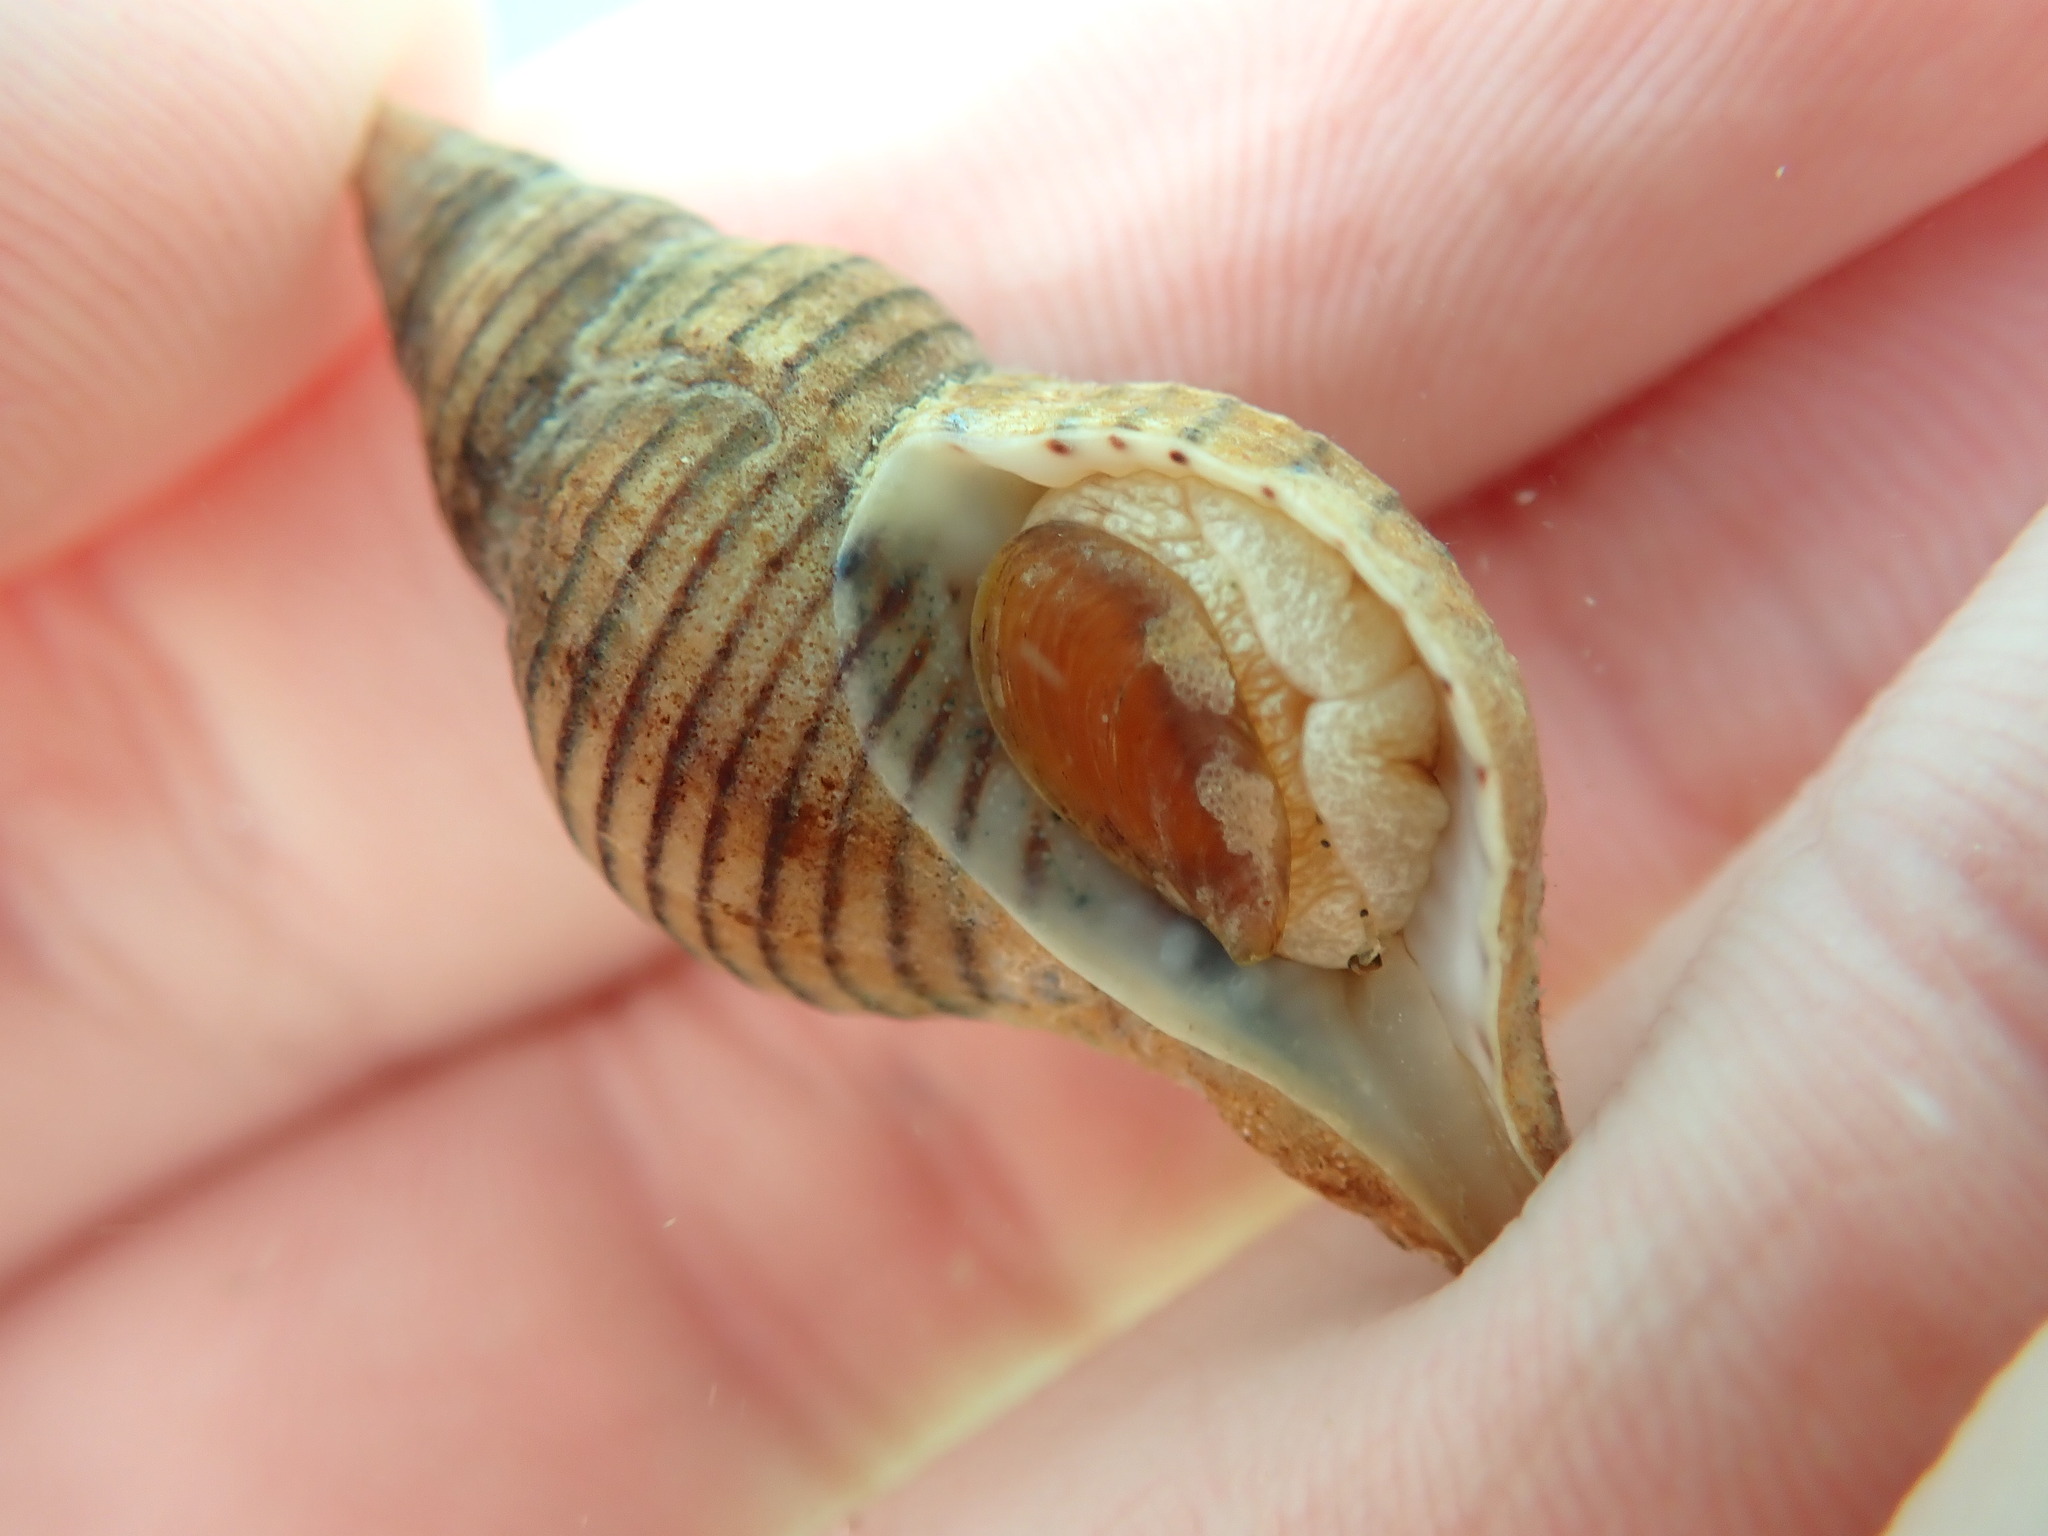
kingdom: Animalia
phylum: Mollusca
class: Gastropoda
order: Neogastropoda
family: Tudiclidae
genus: Buccinulum
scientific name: Buccinulum linea
